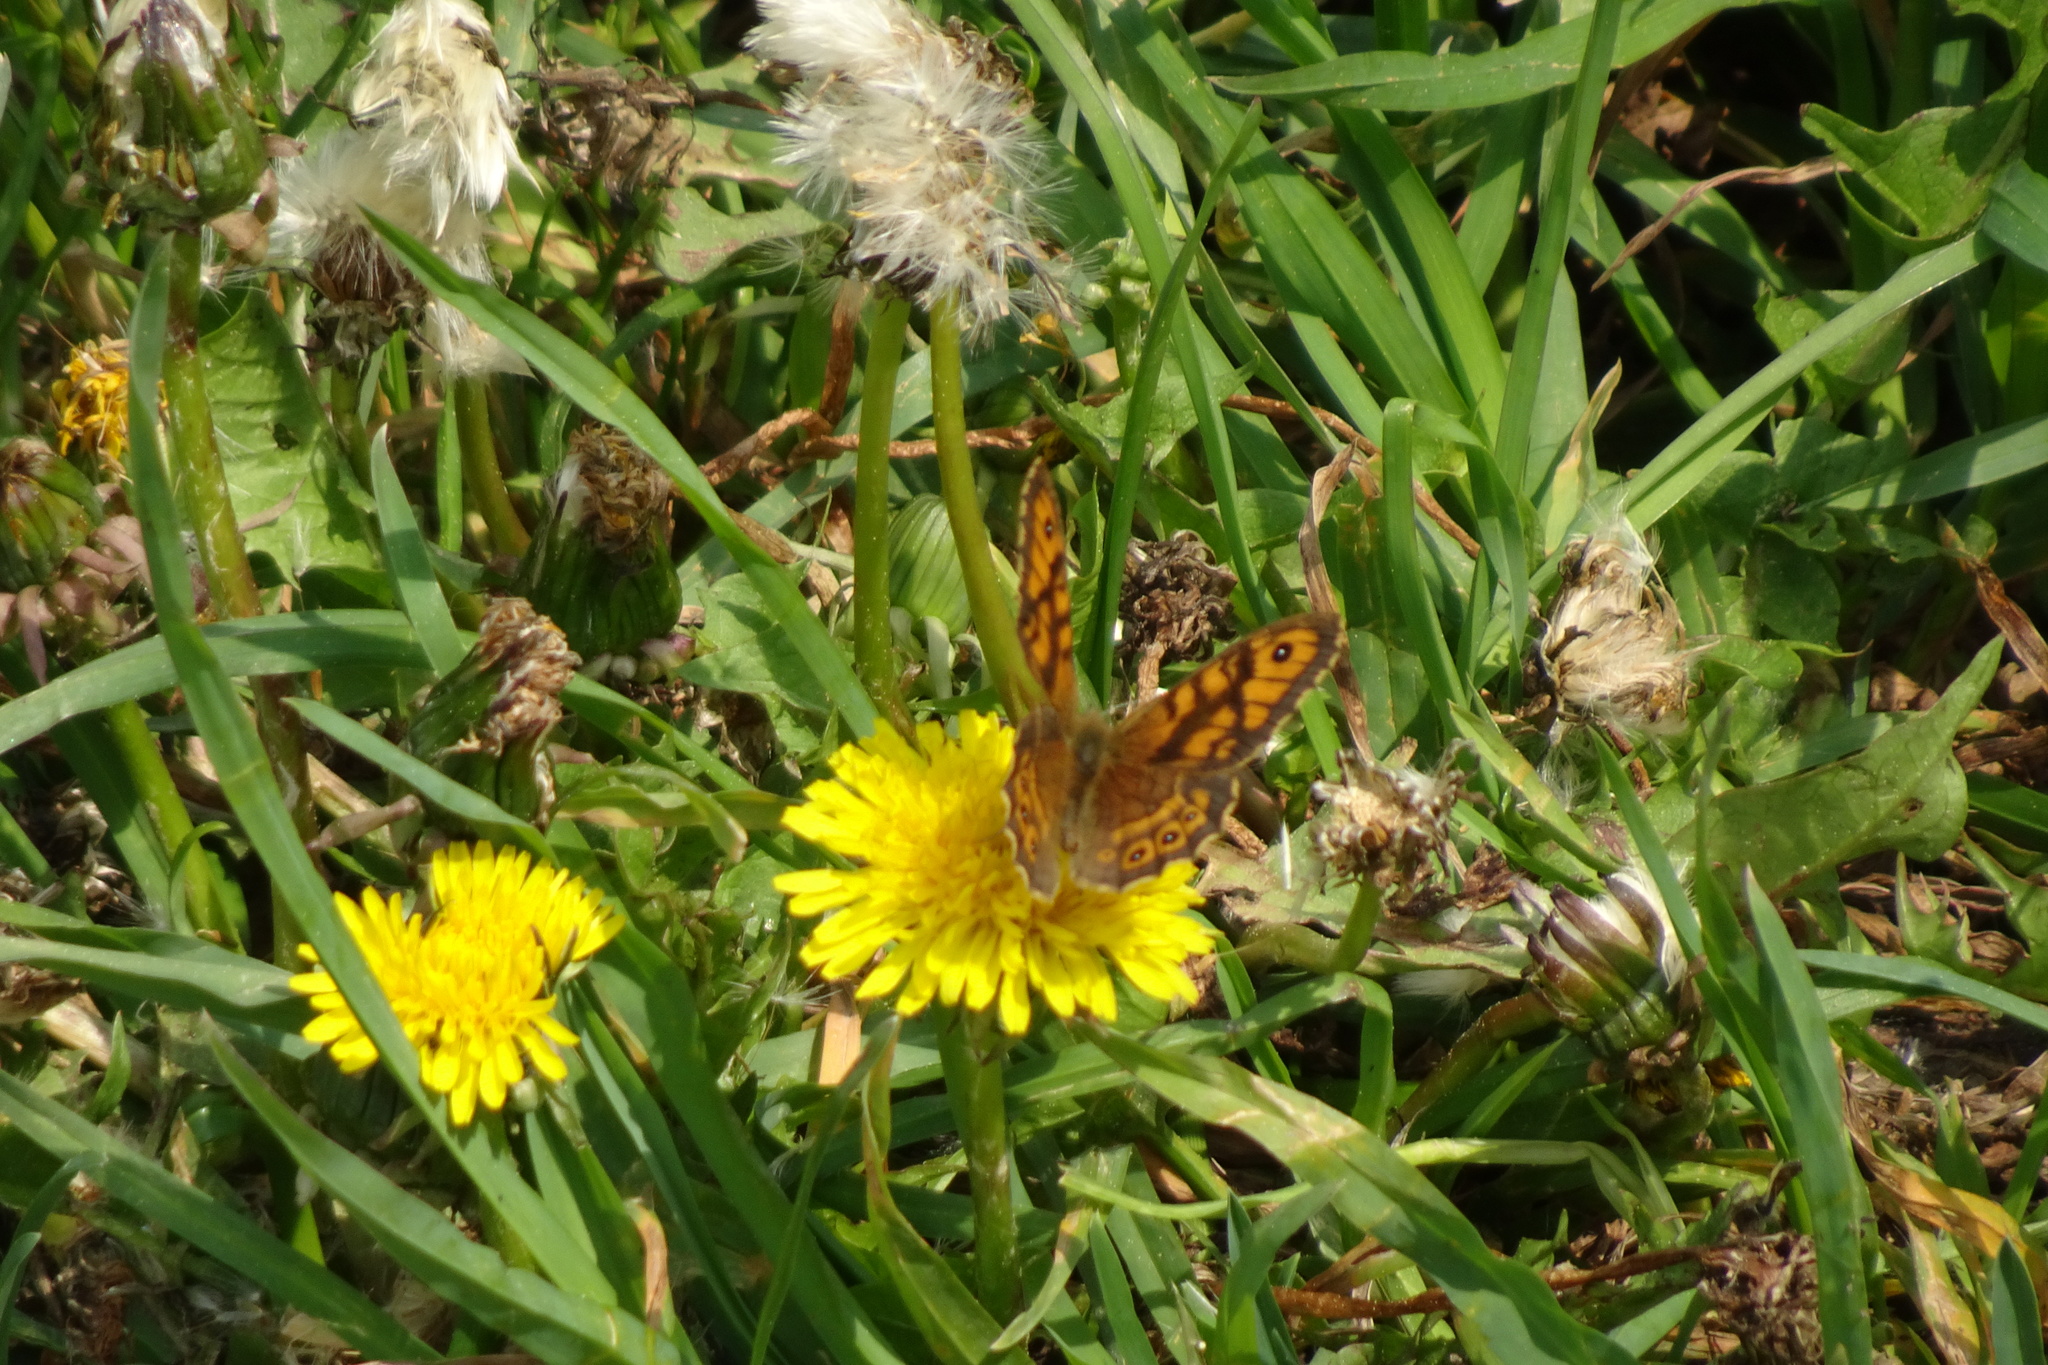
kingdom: Animalia
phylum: Arthropoda
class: Insecta
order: Lepidoptera
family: Nymphalidae
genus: Pararge
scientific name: Pararge Lasiommata megera
